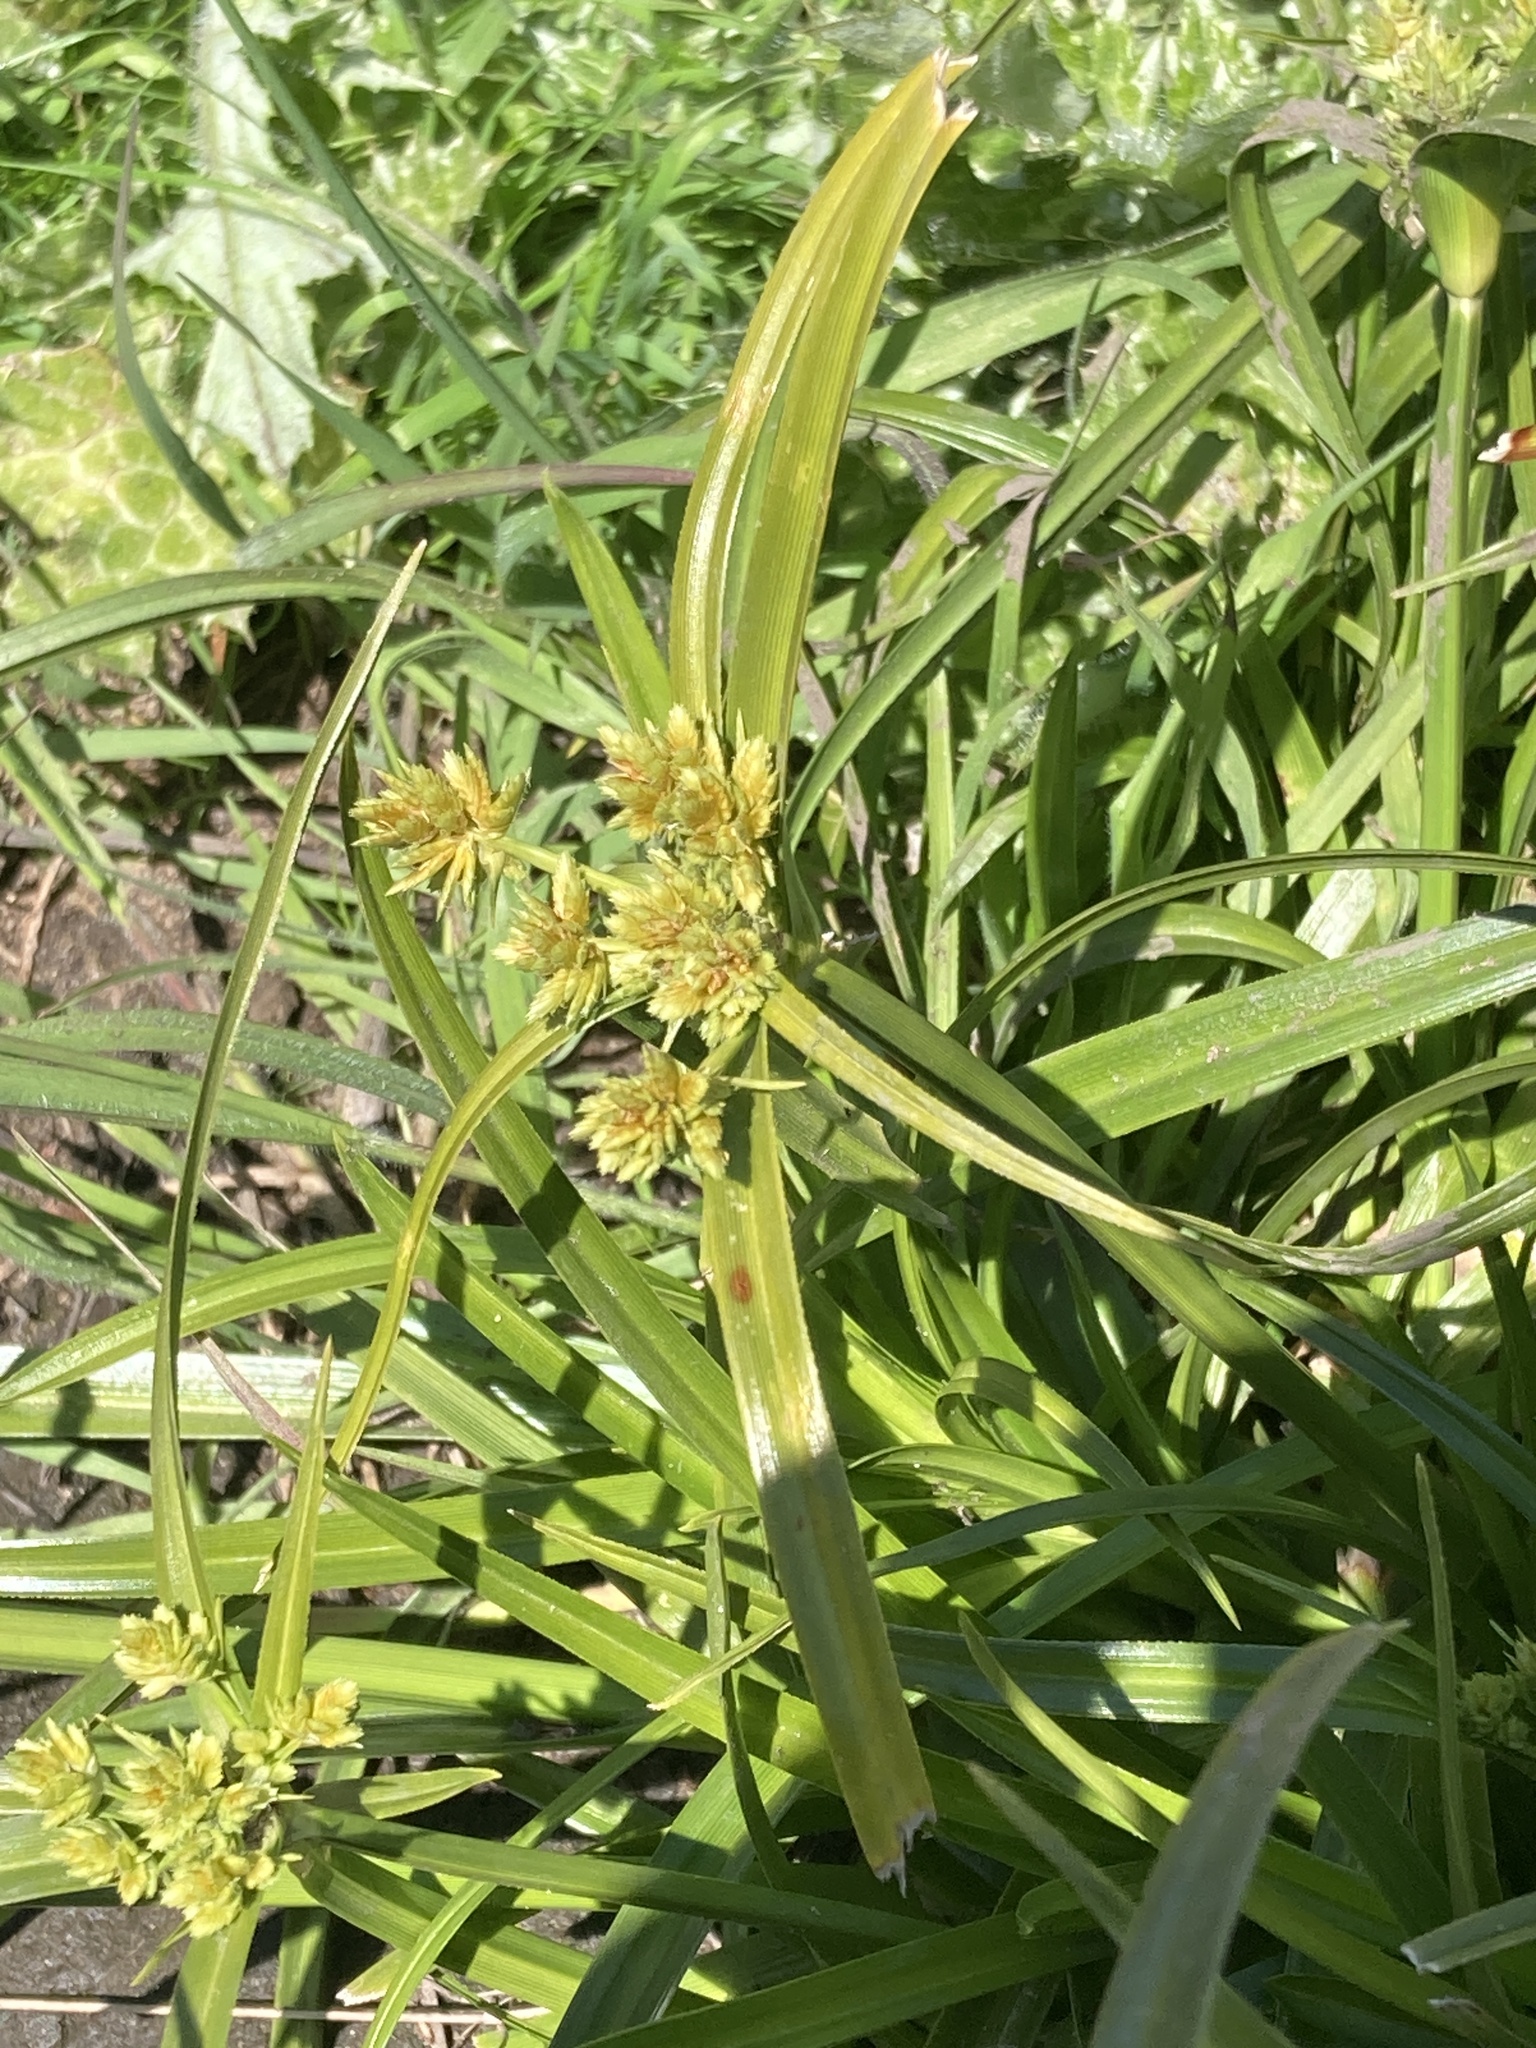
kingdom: Plantae
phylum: Tracheophyta
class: Liliopsida
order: Poales
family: Cyperaceae
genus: Cyperus
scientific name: Cyperus eragrostis
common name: Tall flatsedge
